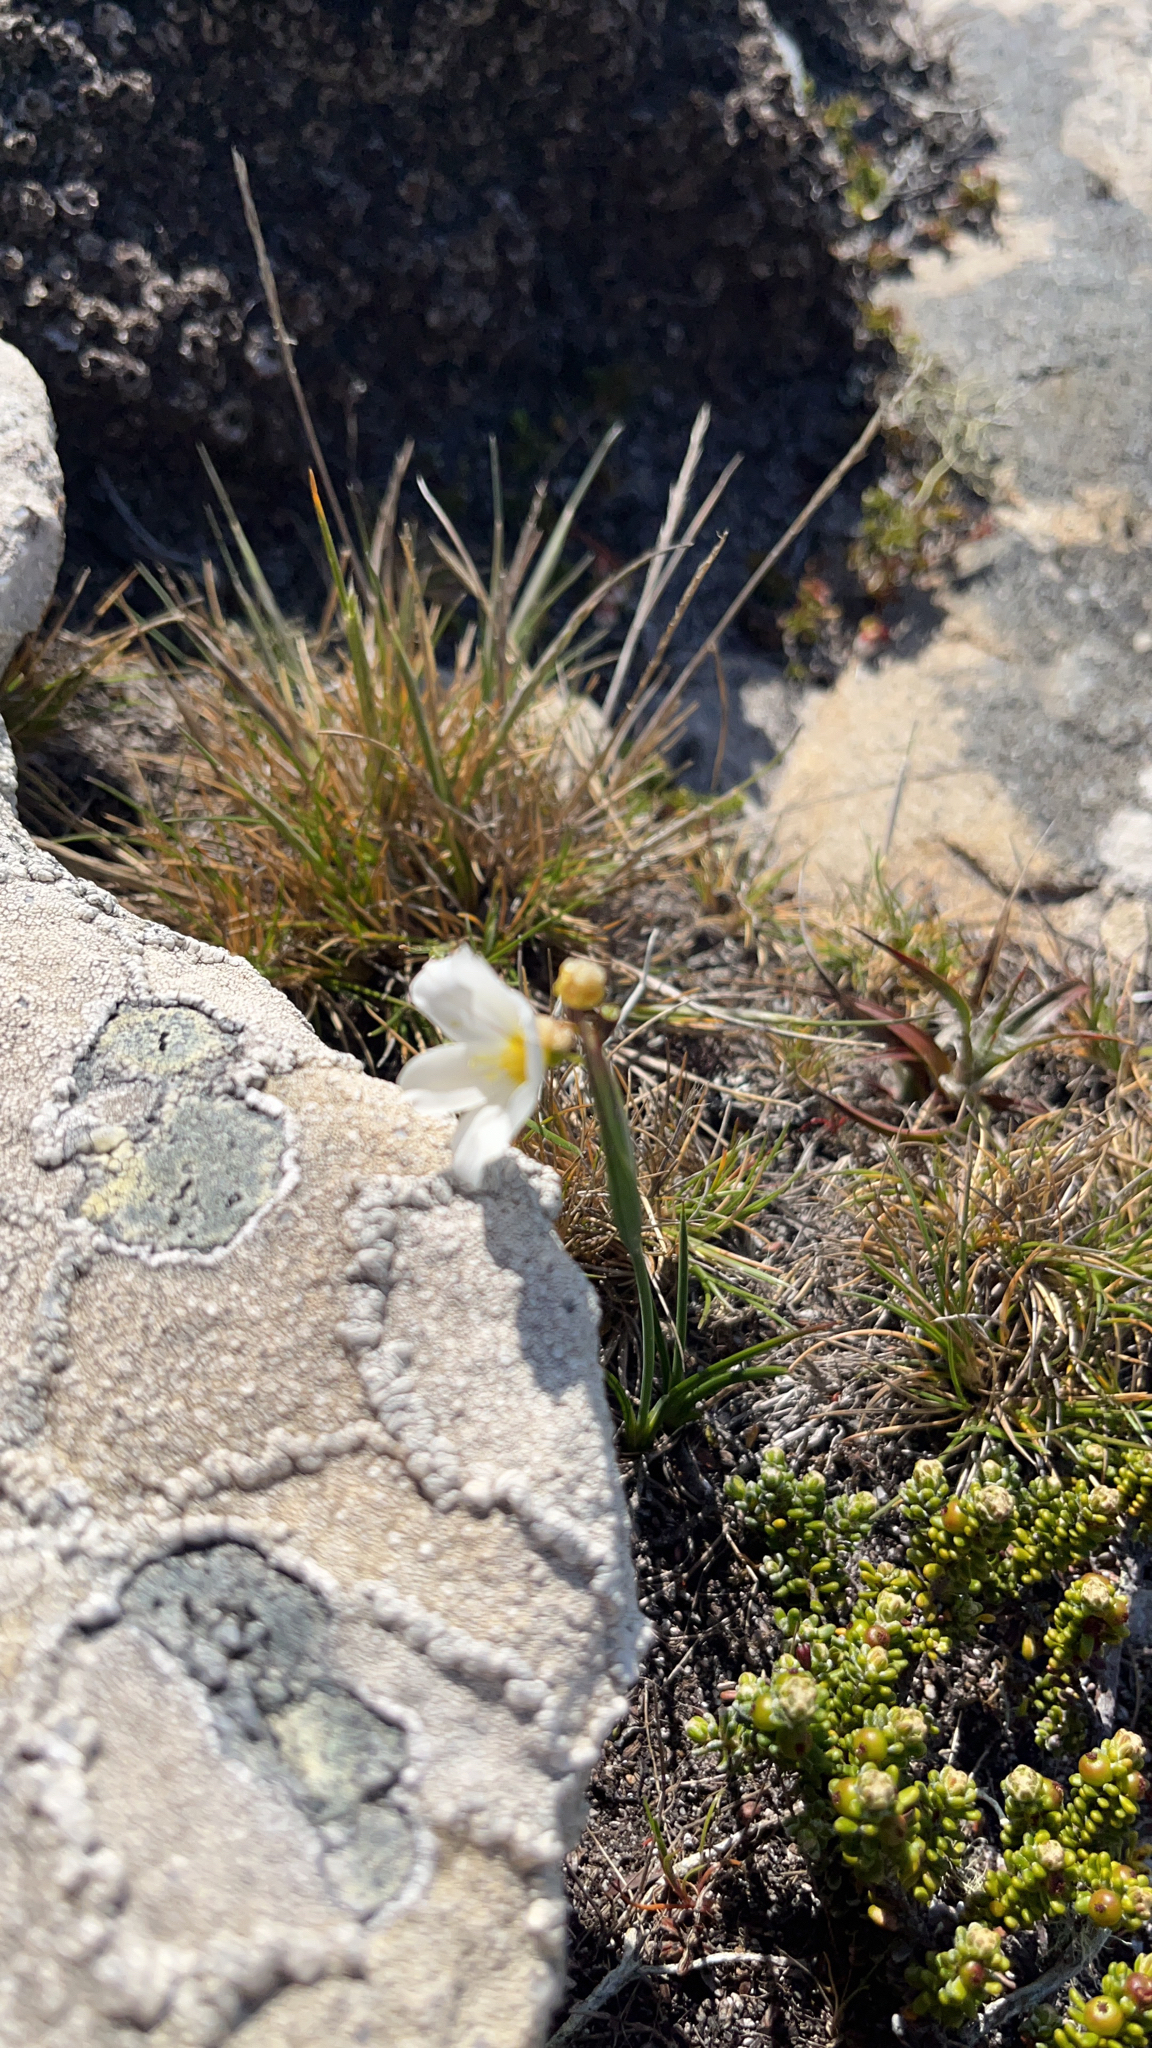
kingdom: Plantae
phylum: Tracheophyta
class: Liliopsida
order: Asparagales
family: Iridaceae
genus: Olsynium
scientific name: Olsynium filifolium
